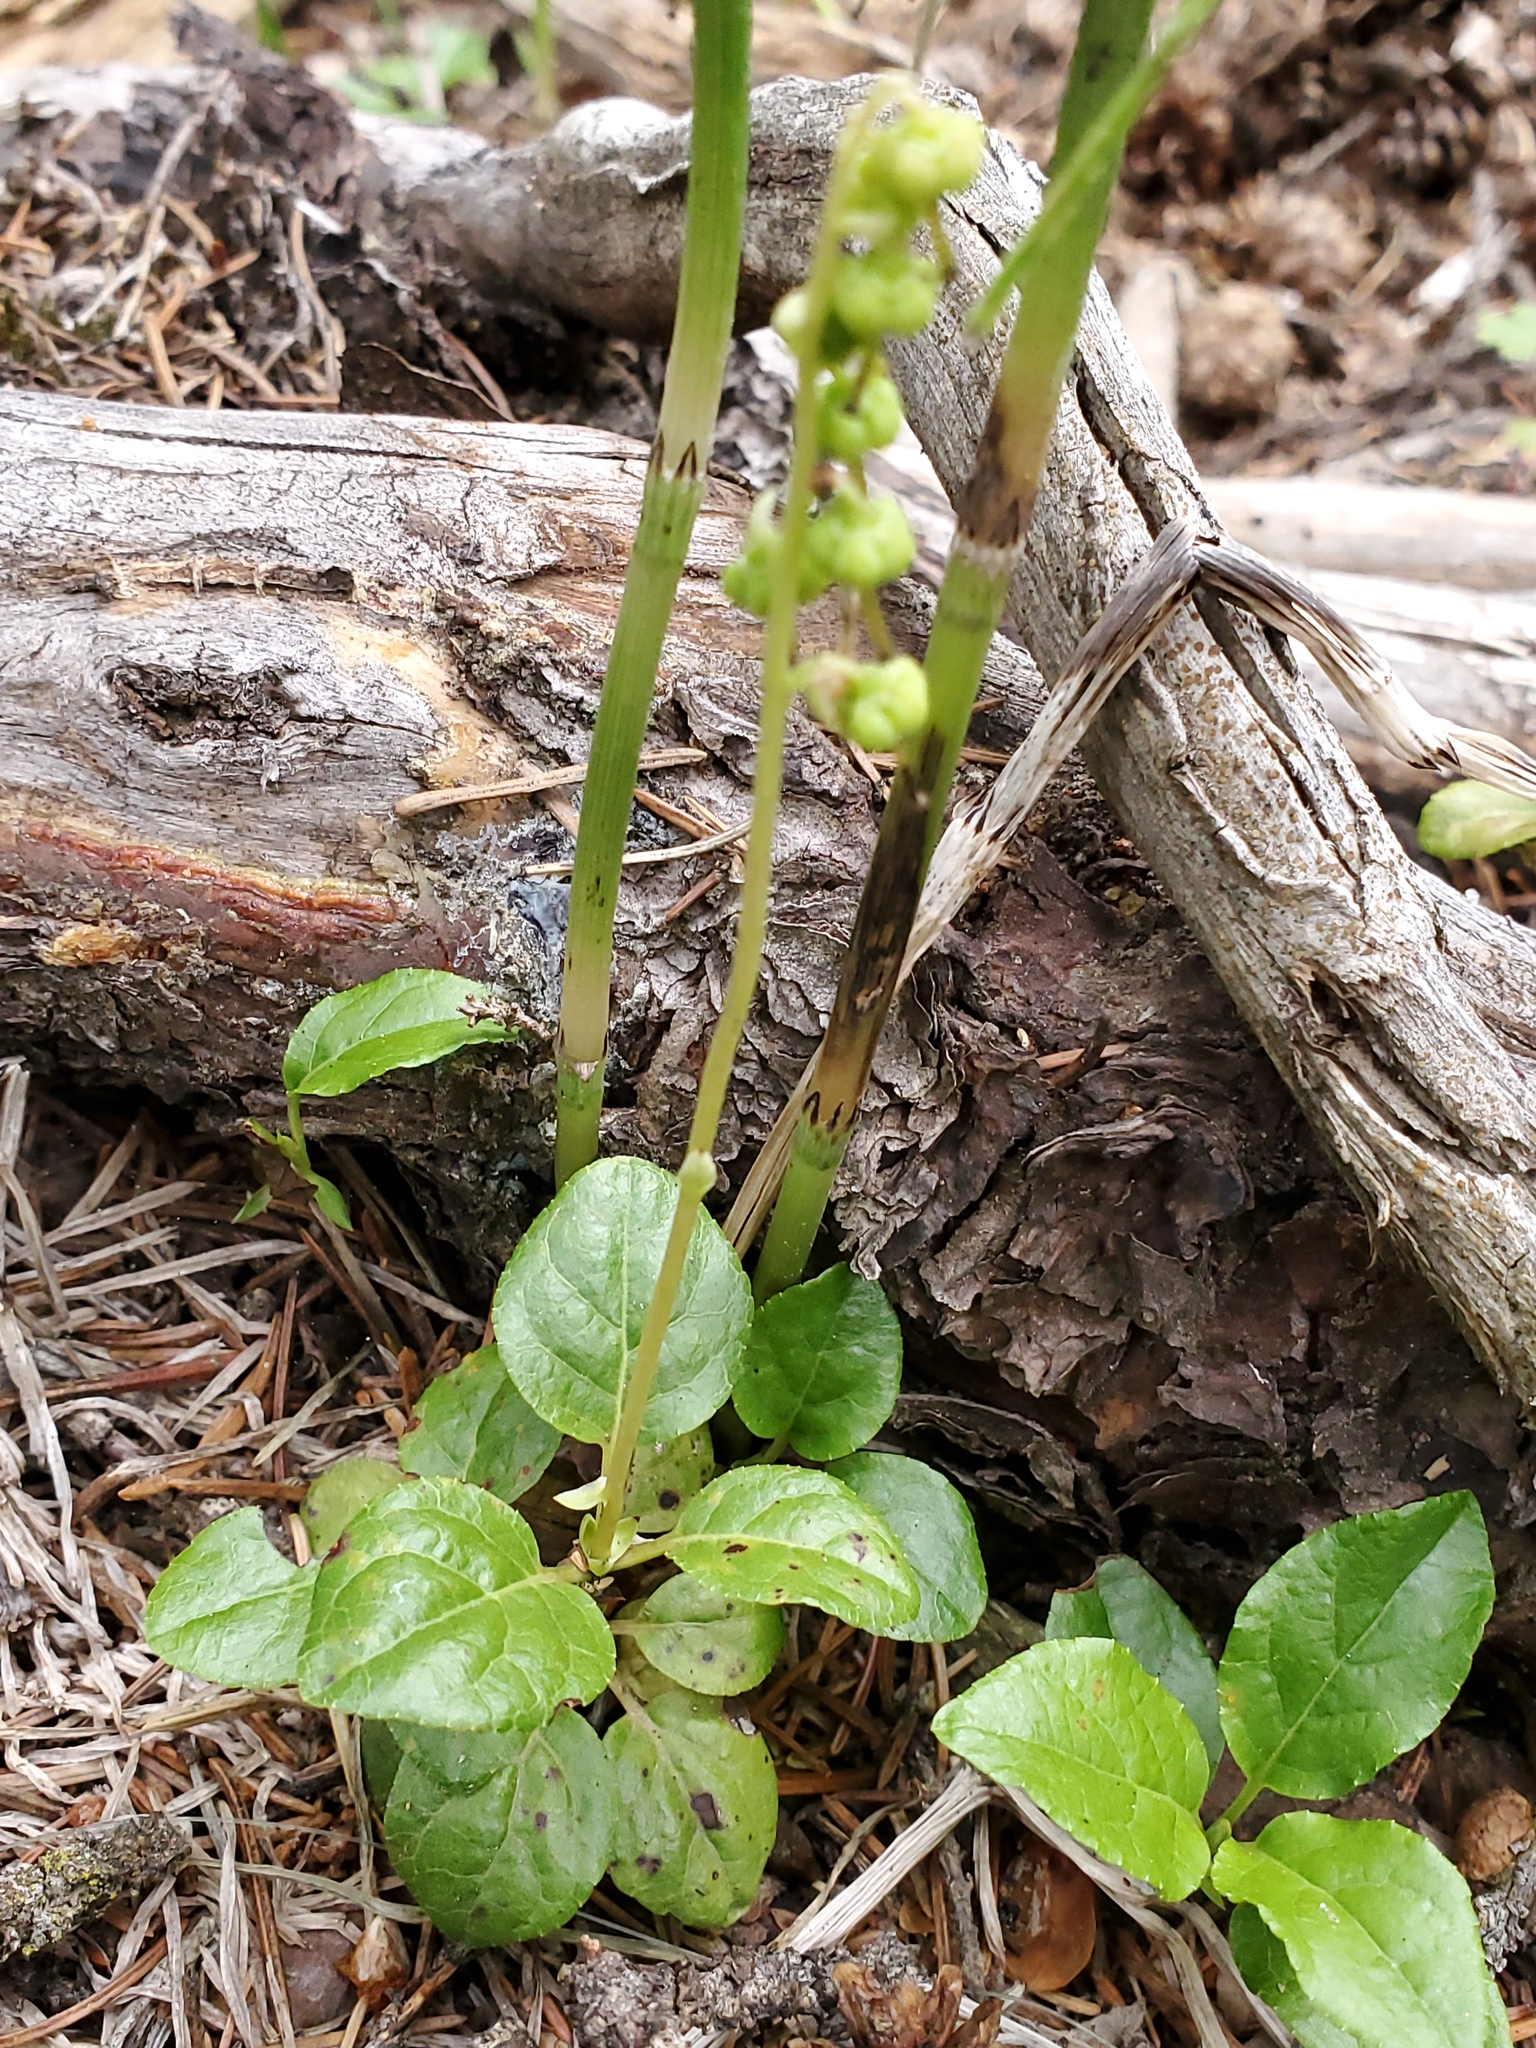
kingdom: Plantae
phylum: Tracheophyta
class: Magnoliopsida
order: Ericales
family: Ericaceae
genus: Orthilia
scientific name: Orthilia secunda
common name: One-sided orthilia
